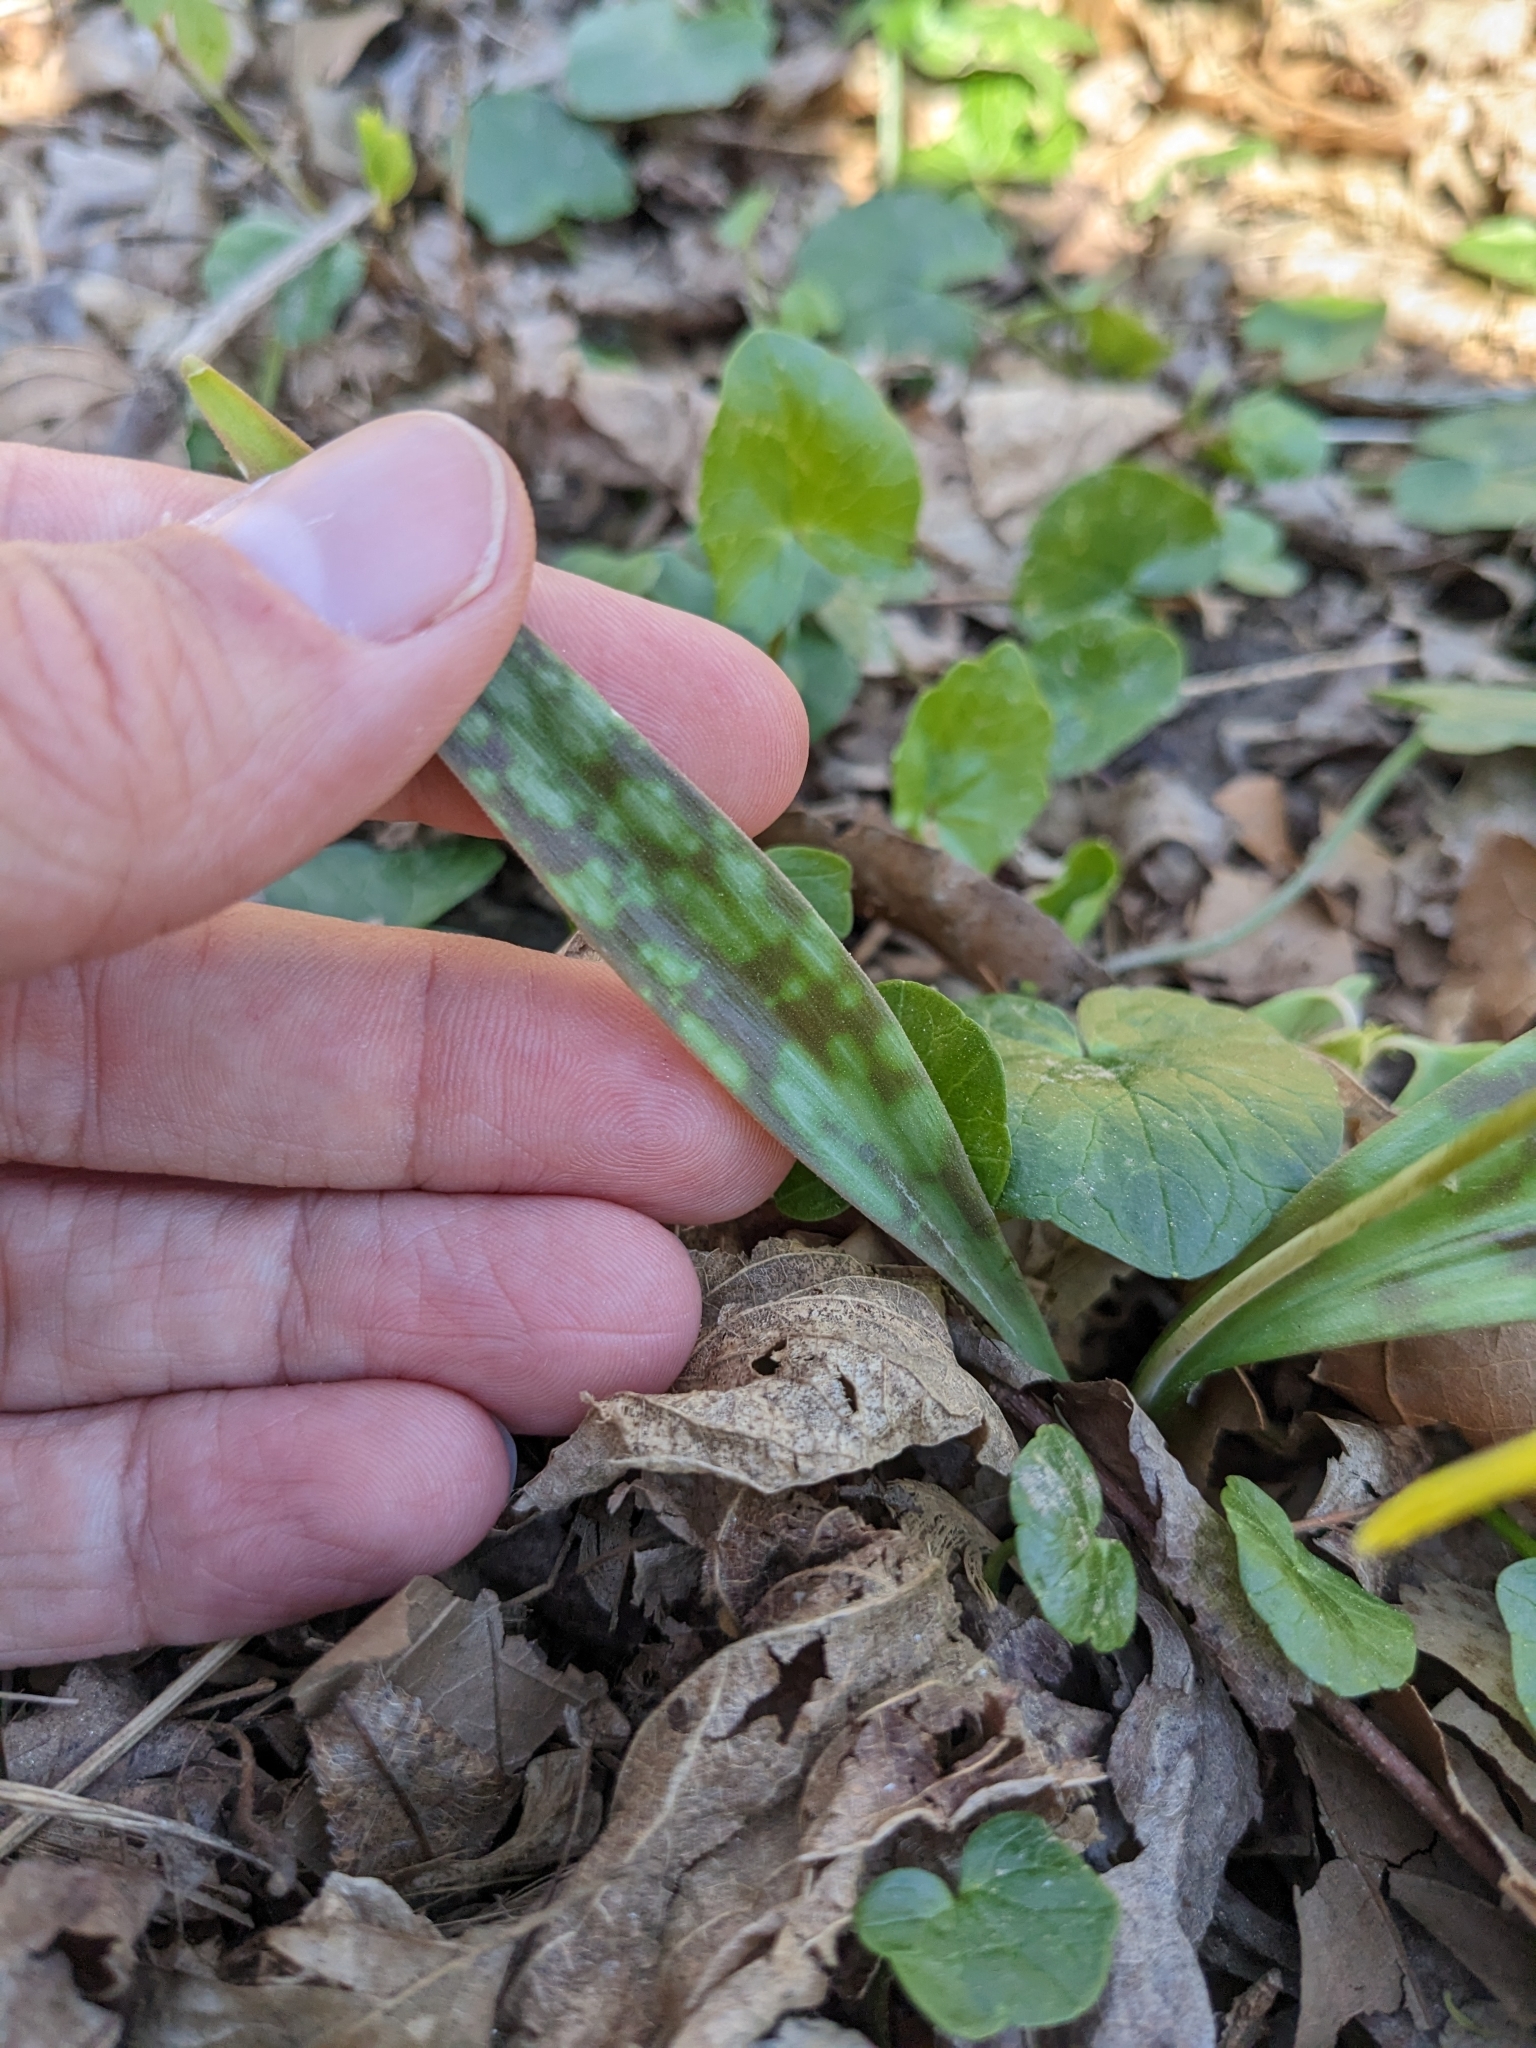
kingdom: Plantae
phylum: Tracheophyta
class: Liliopsida
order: Liliales
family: Liliaceae
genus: Erythronium
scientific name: Erythronium americanum
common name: Yellow adder's-tongue
